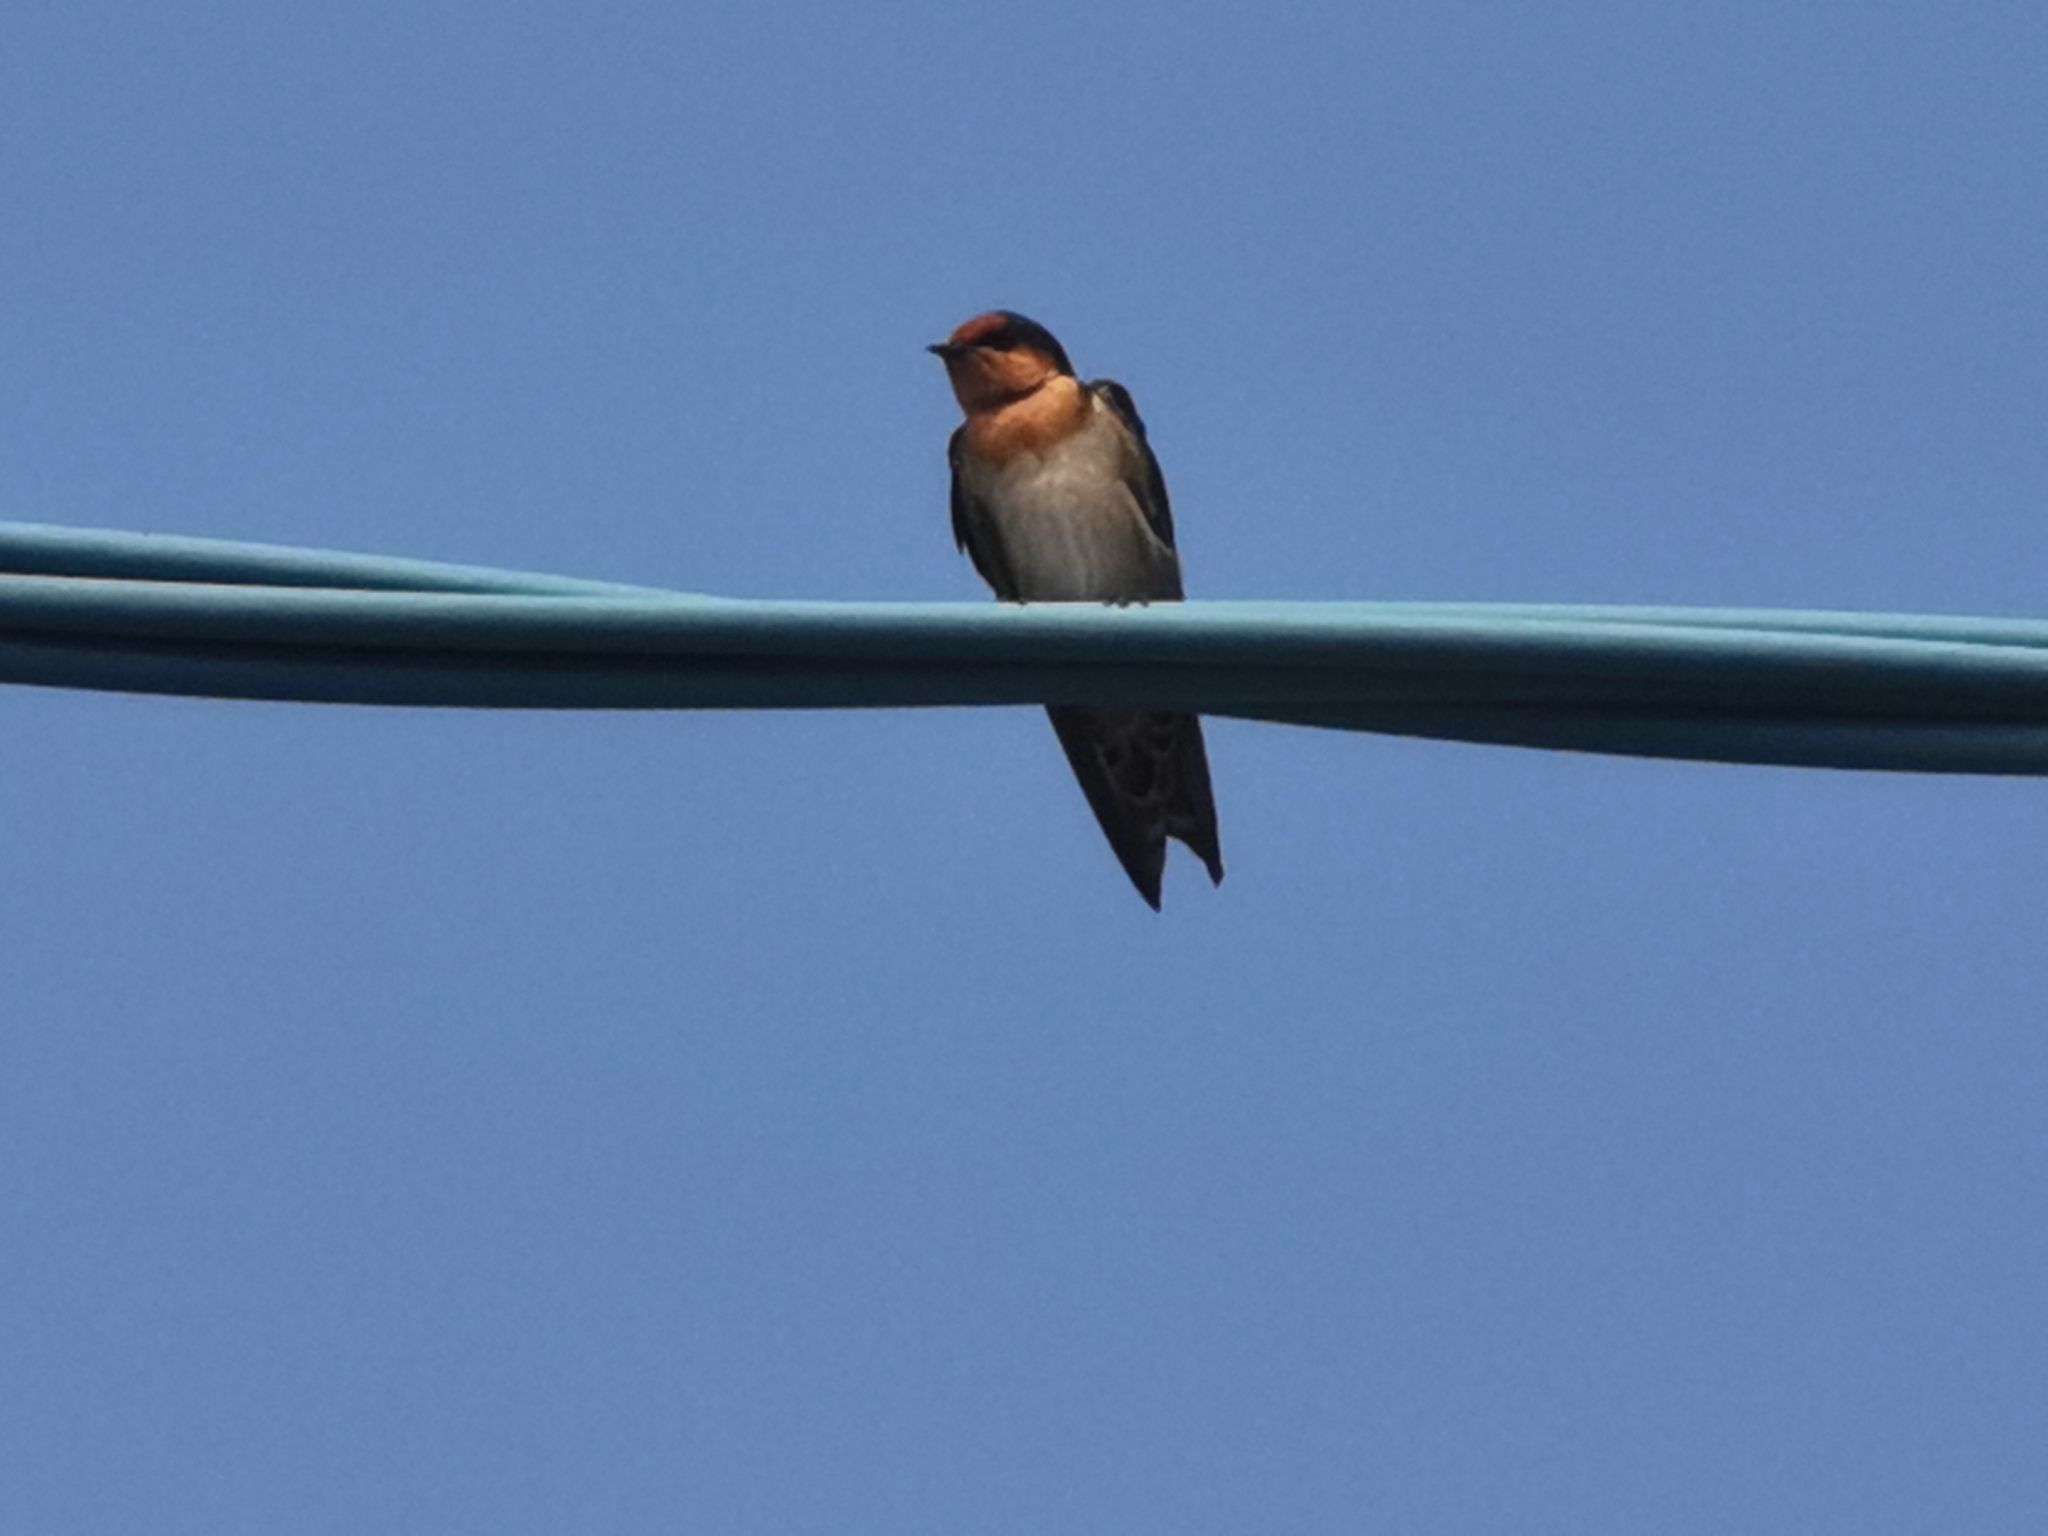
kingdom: Animalia
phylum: Chordata
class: Aves
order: Passeriformes
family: Hirundinidae
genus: Hirundo
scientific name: Hirundo tahitica
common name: Pacific swallow
